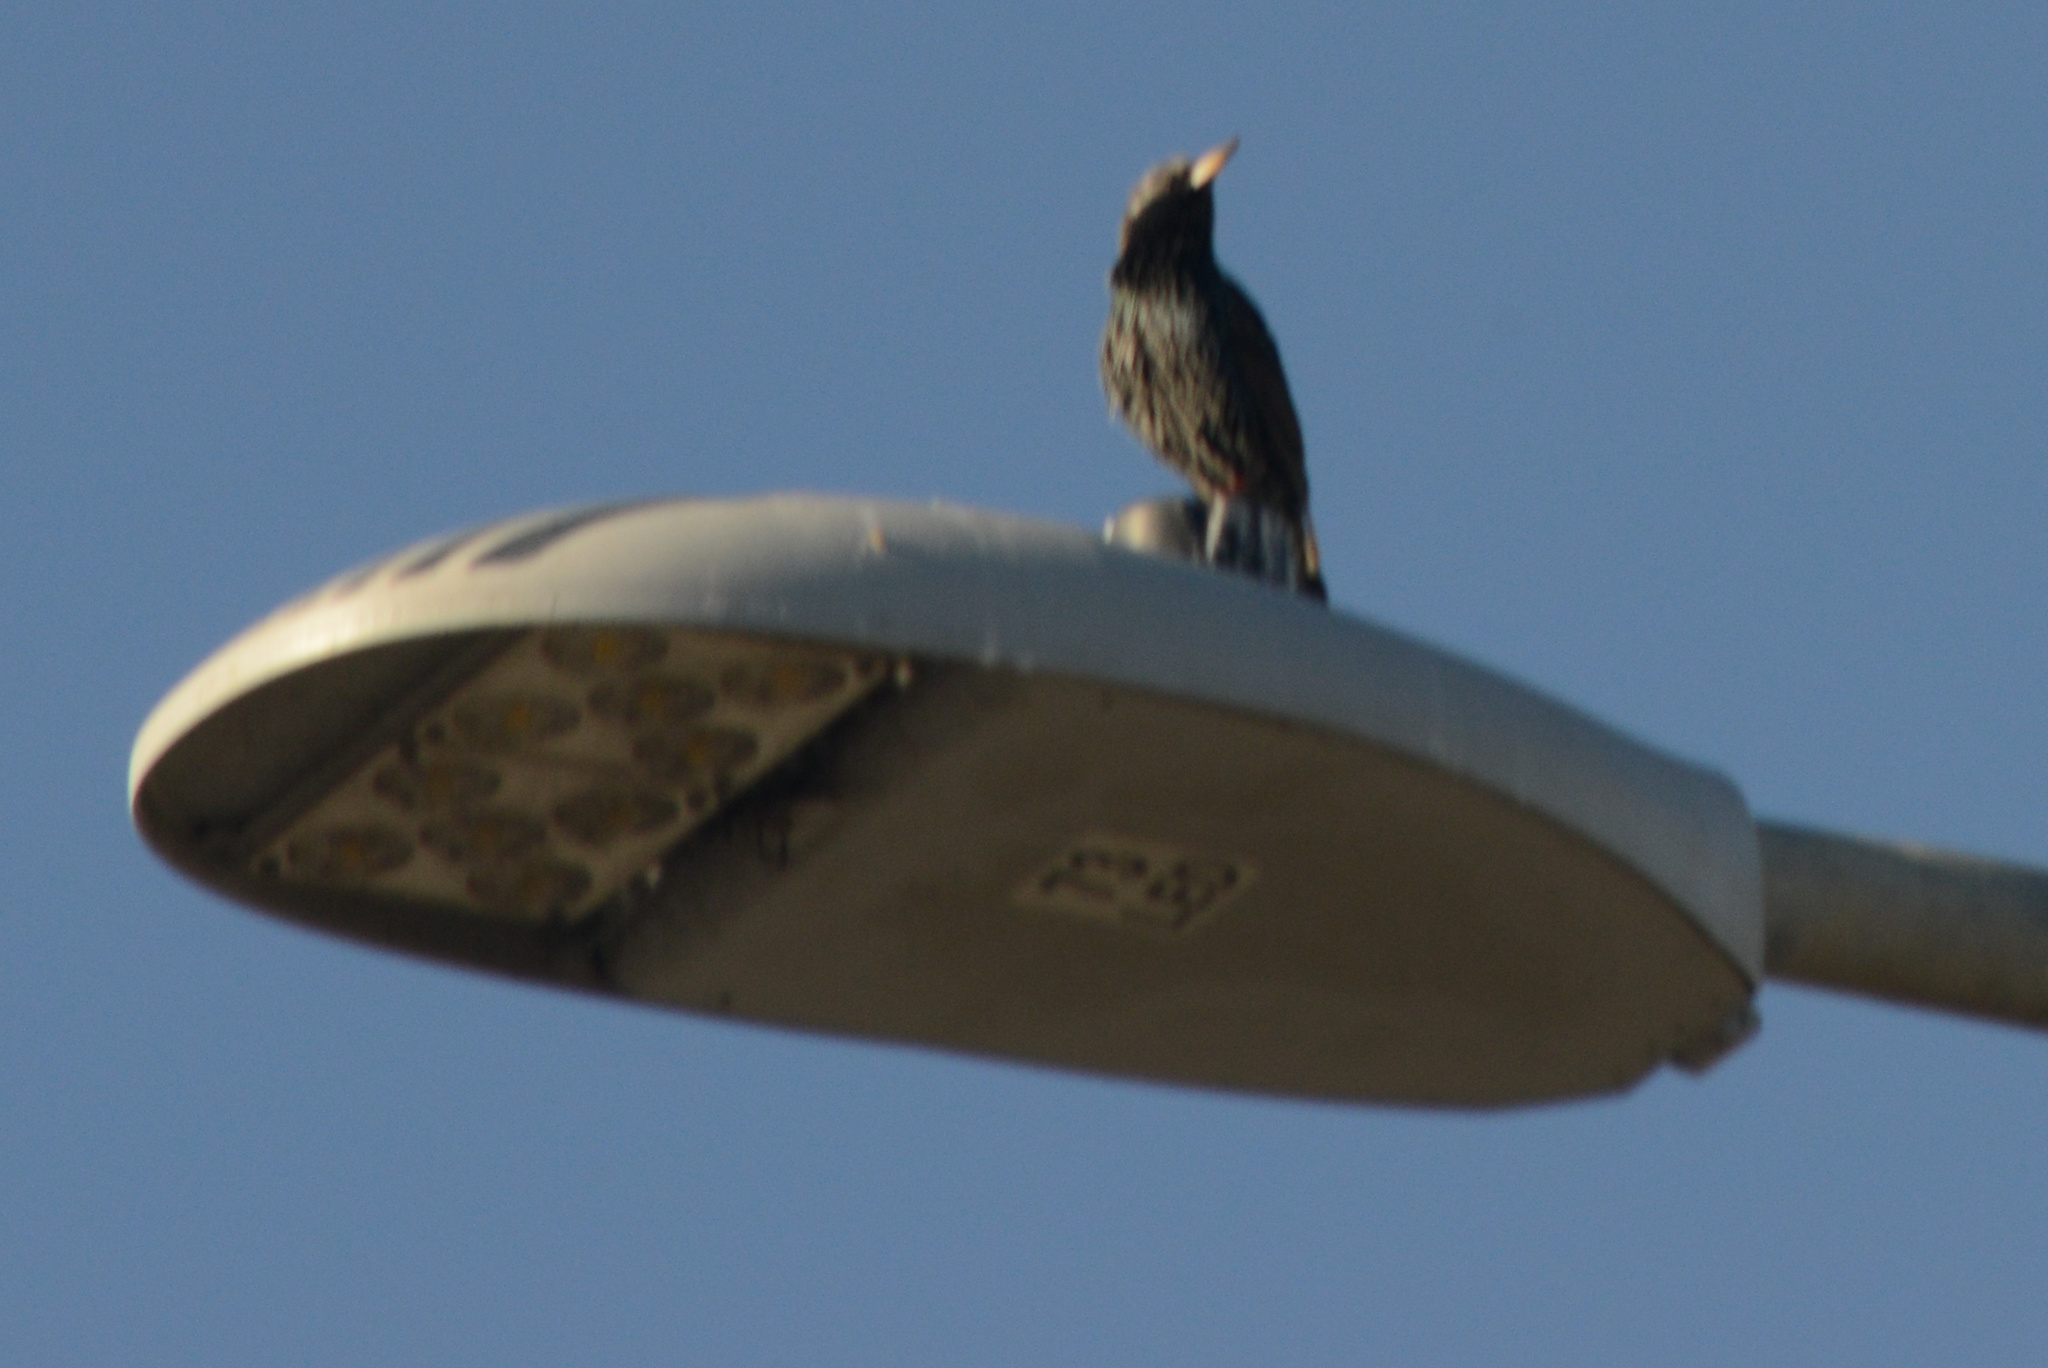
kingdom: Animalia
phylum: Chordata
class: Aves
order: Passeriformes
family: Sturnidae
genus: Sturnus
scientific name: Sturnus vulgaris
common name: Common starling
